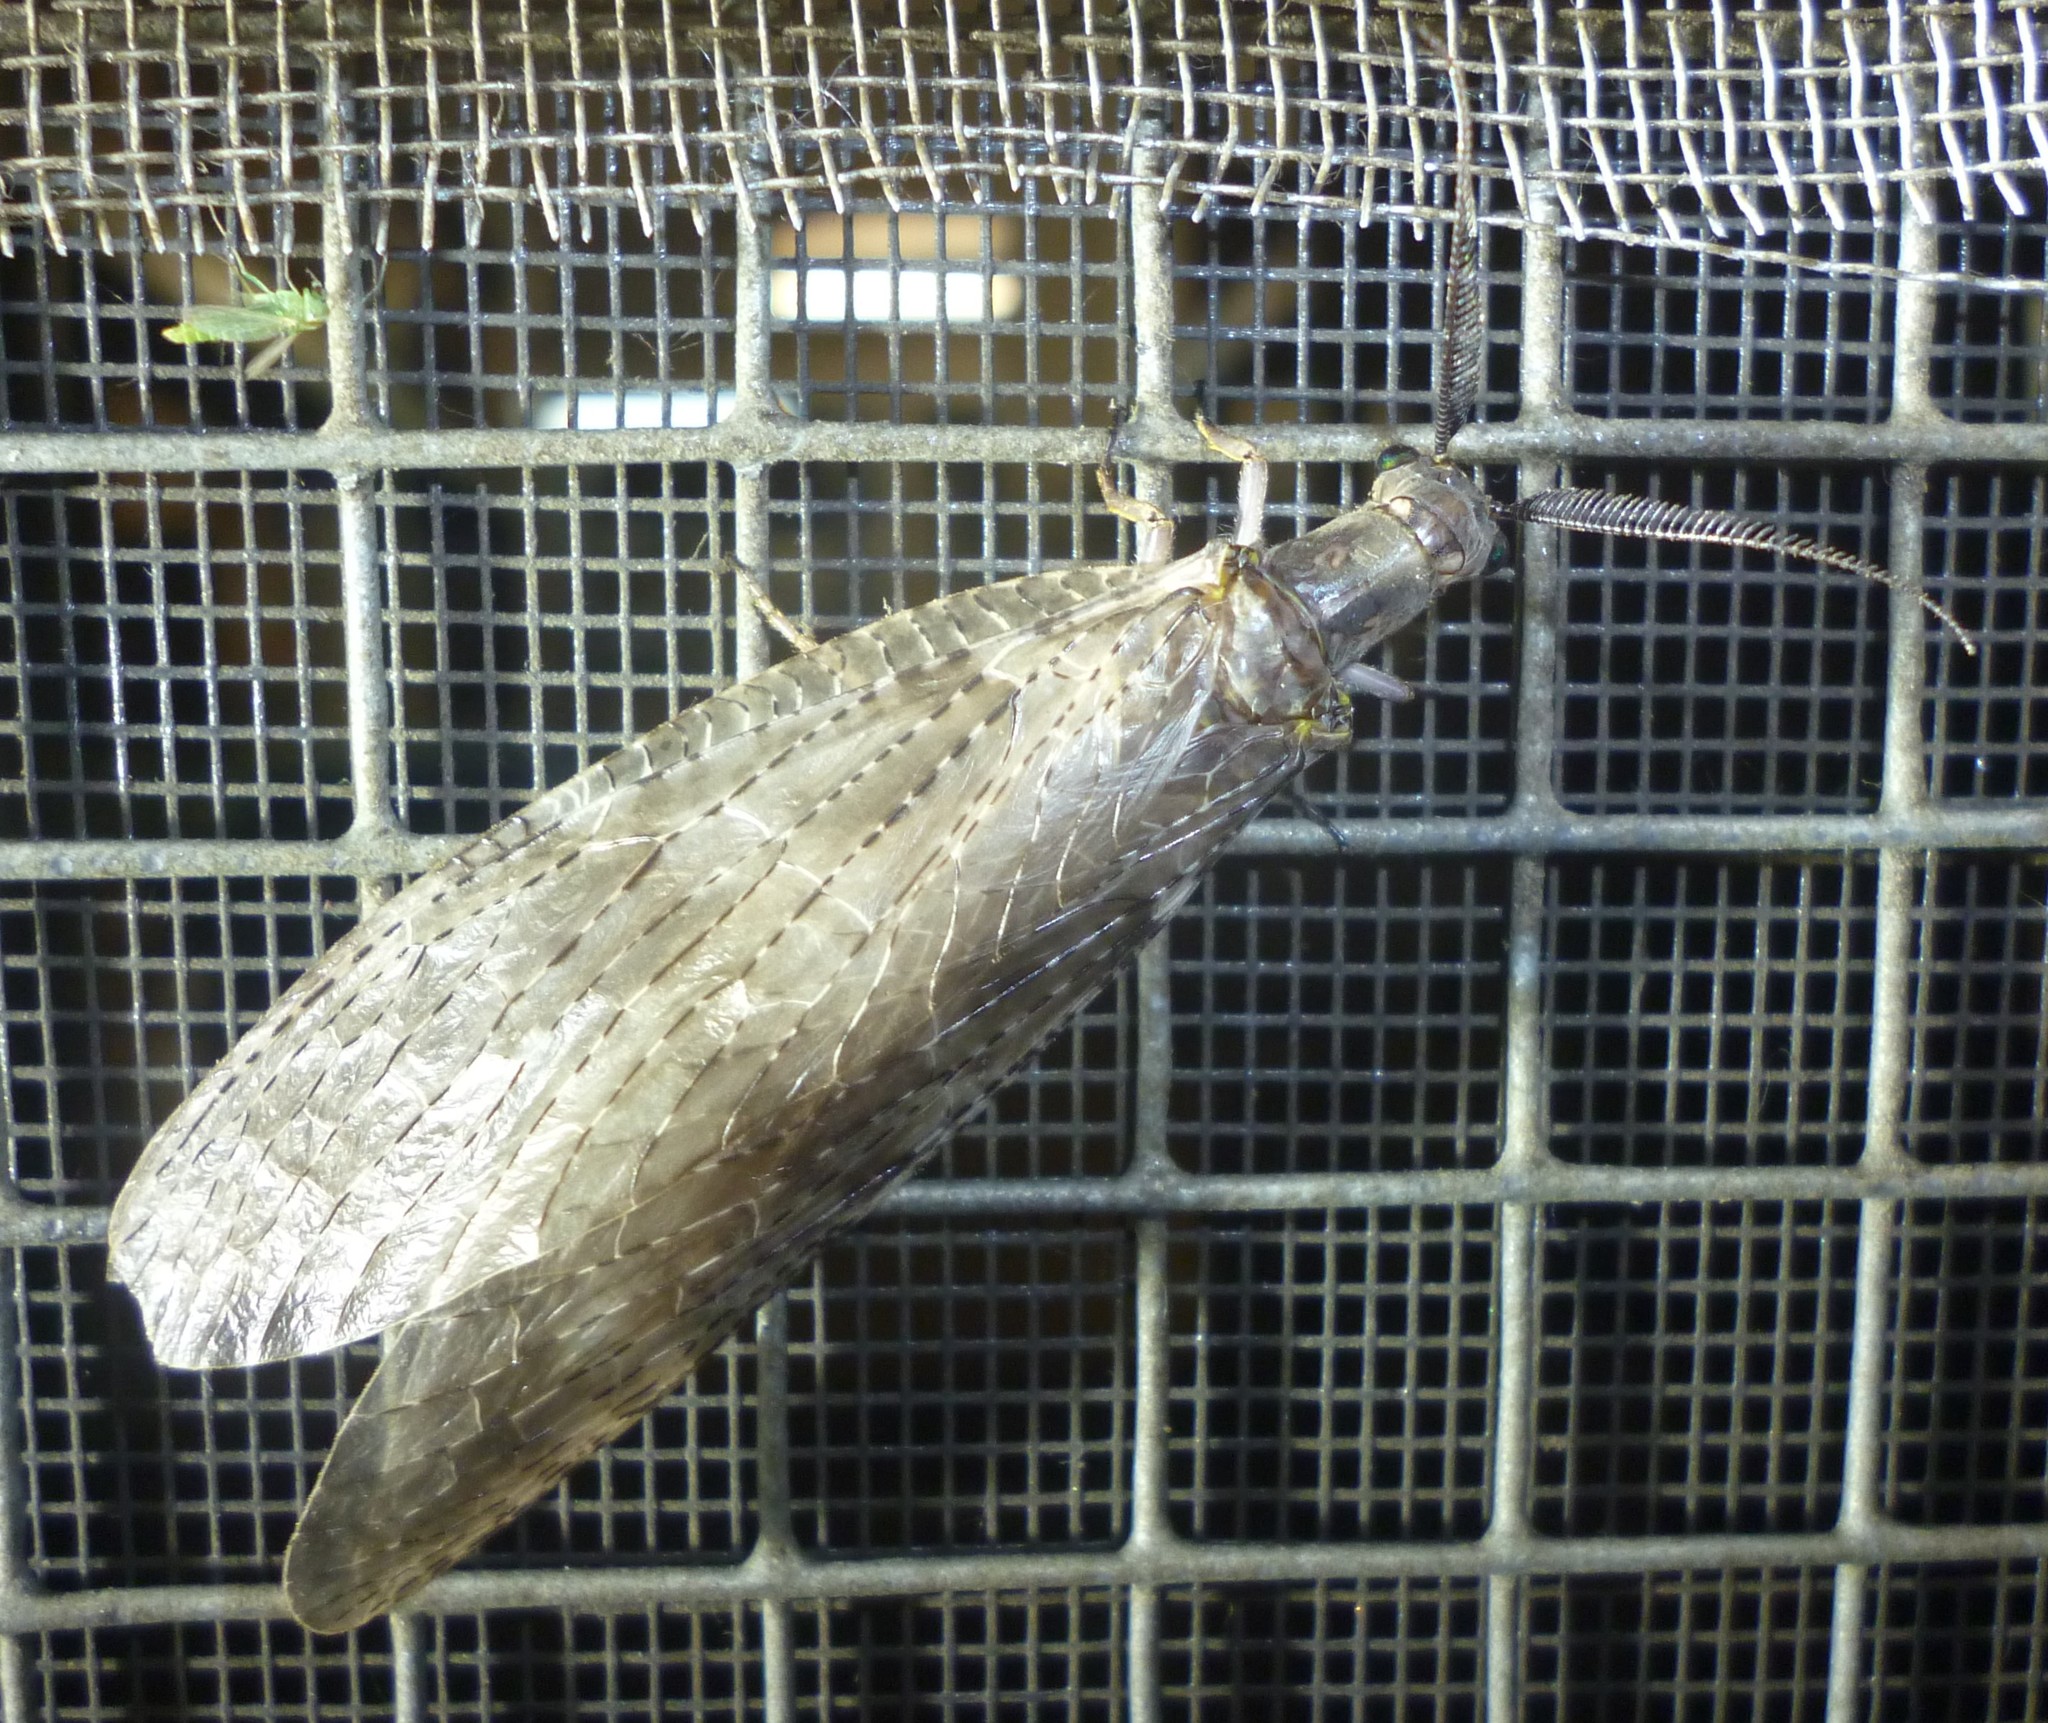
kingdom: Animalia
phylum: Arthropoda
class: Insecta
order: Megaloptera
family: Corydalidae
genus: Chauliodes
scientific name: Chauliodes pectinicornis
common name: Summer fishfly
